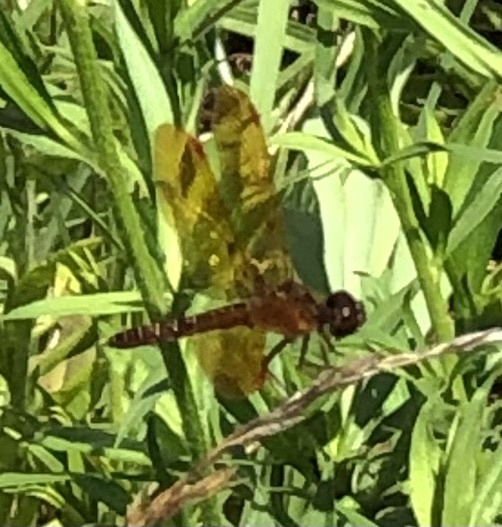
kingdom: Animalia
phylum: Arthropoda
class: Insecta
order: Odonata
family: Libellulidae
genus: Perithemis
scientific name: Perithemis tenera
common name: Eastern amberwing
